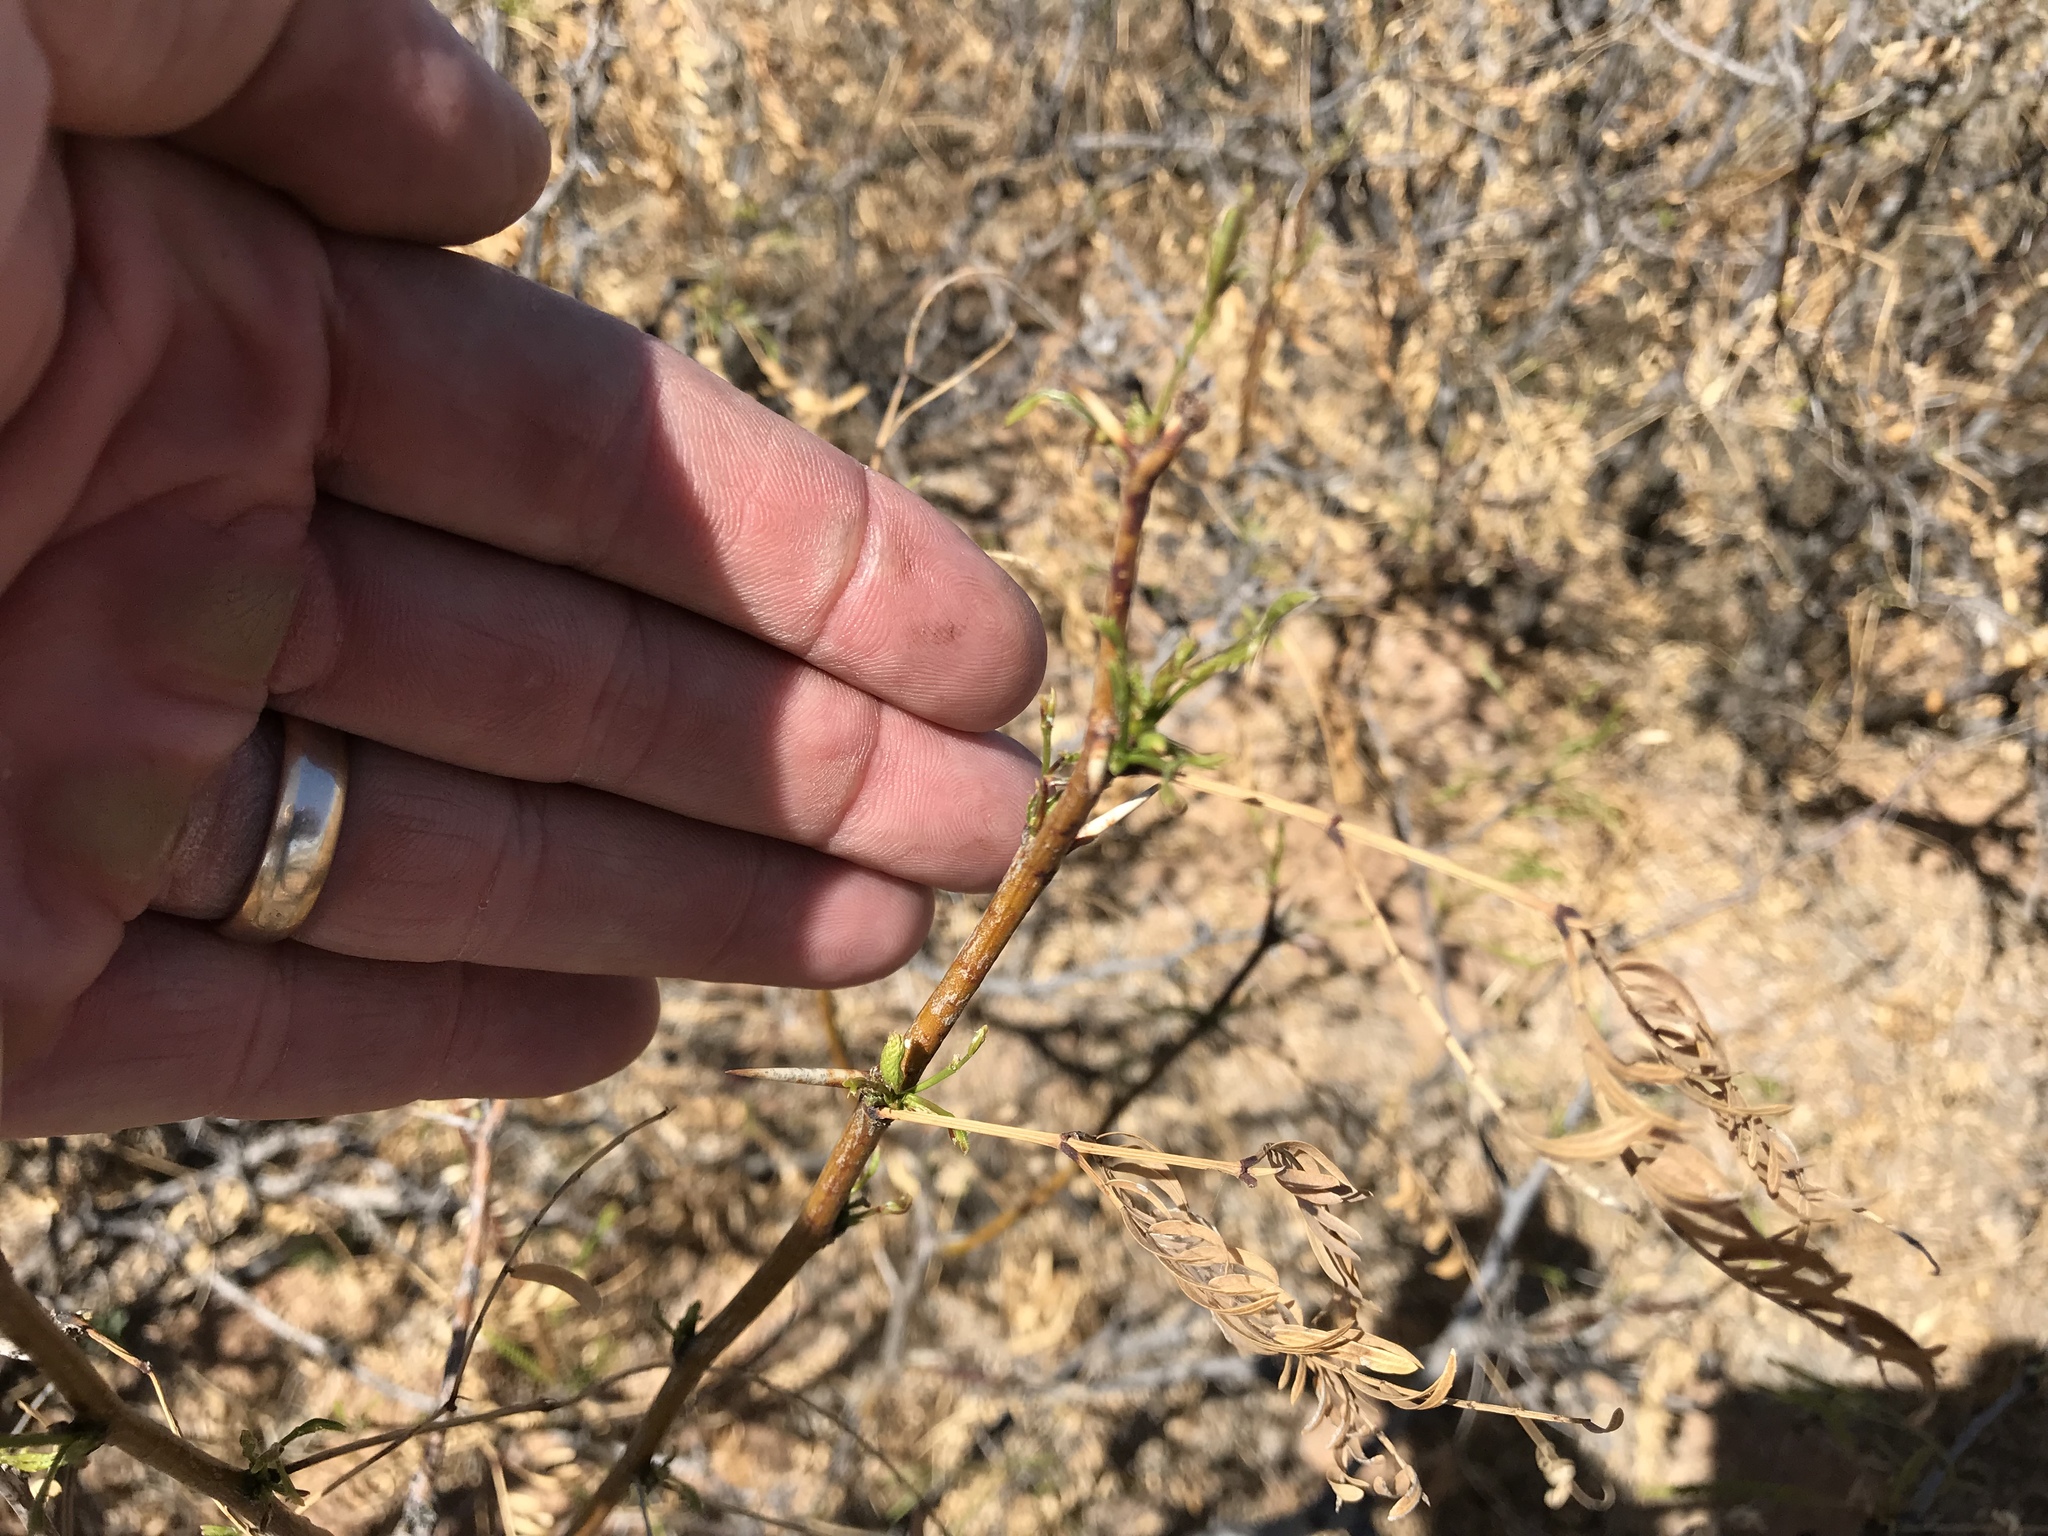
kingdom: Plantae
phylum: Tracheophyta
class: Magnoliopsida
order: Fabales
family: Fabaceae
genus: Prosopis
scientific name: Prosopis glandulosa
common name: Honey mesquite
